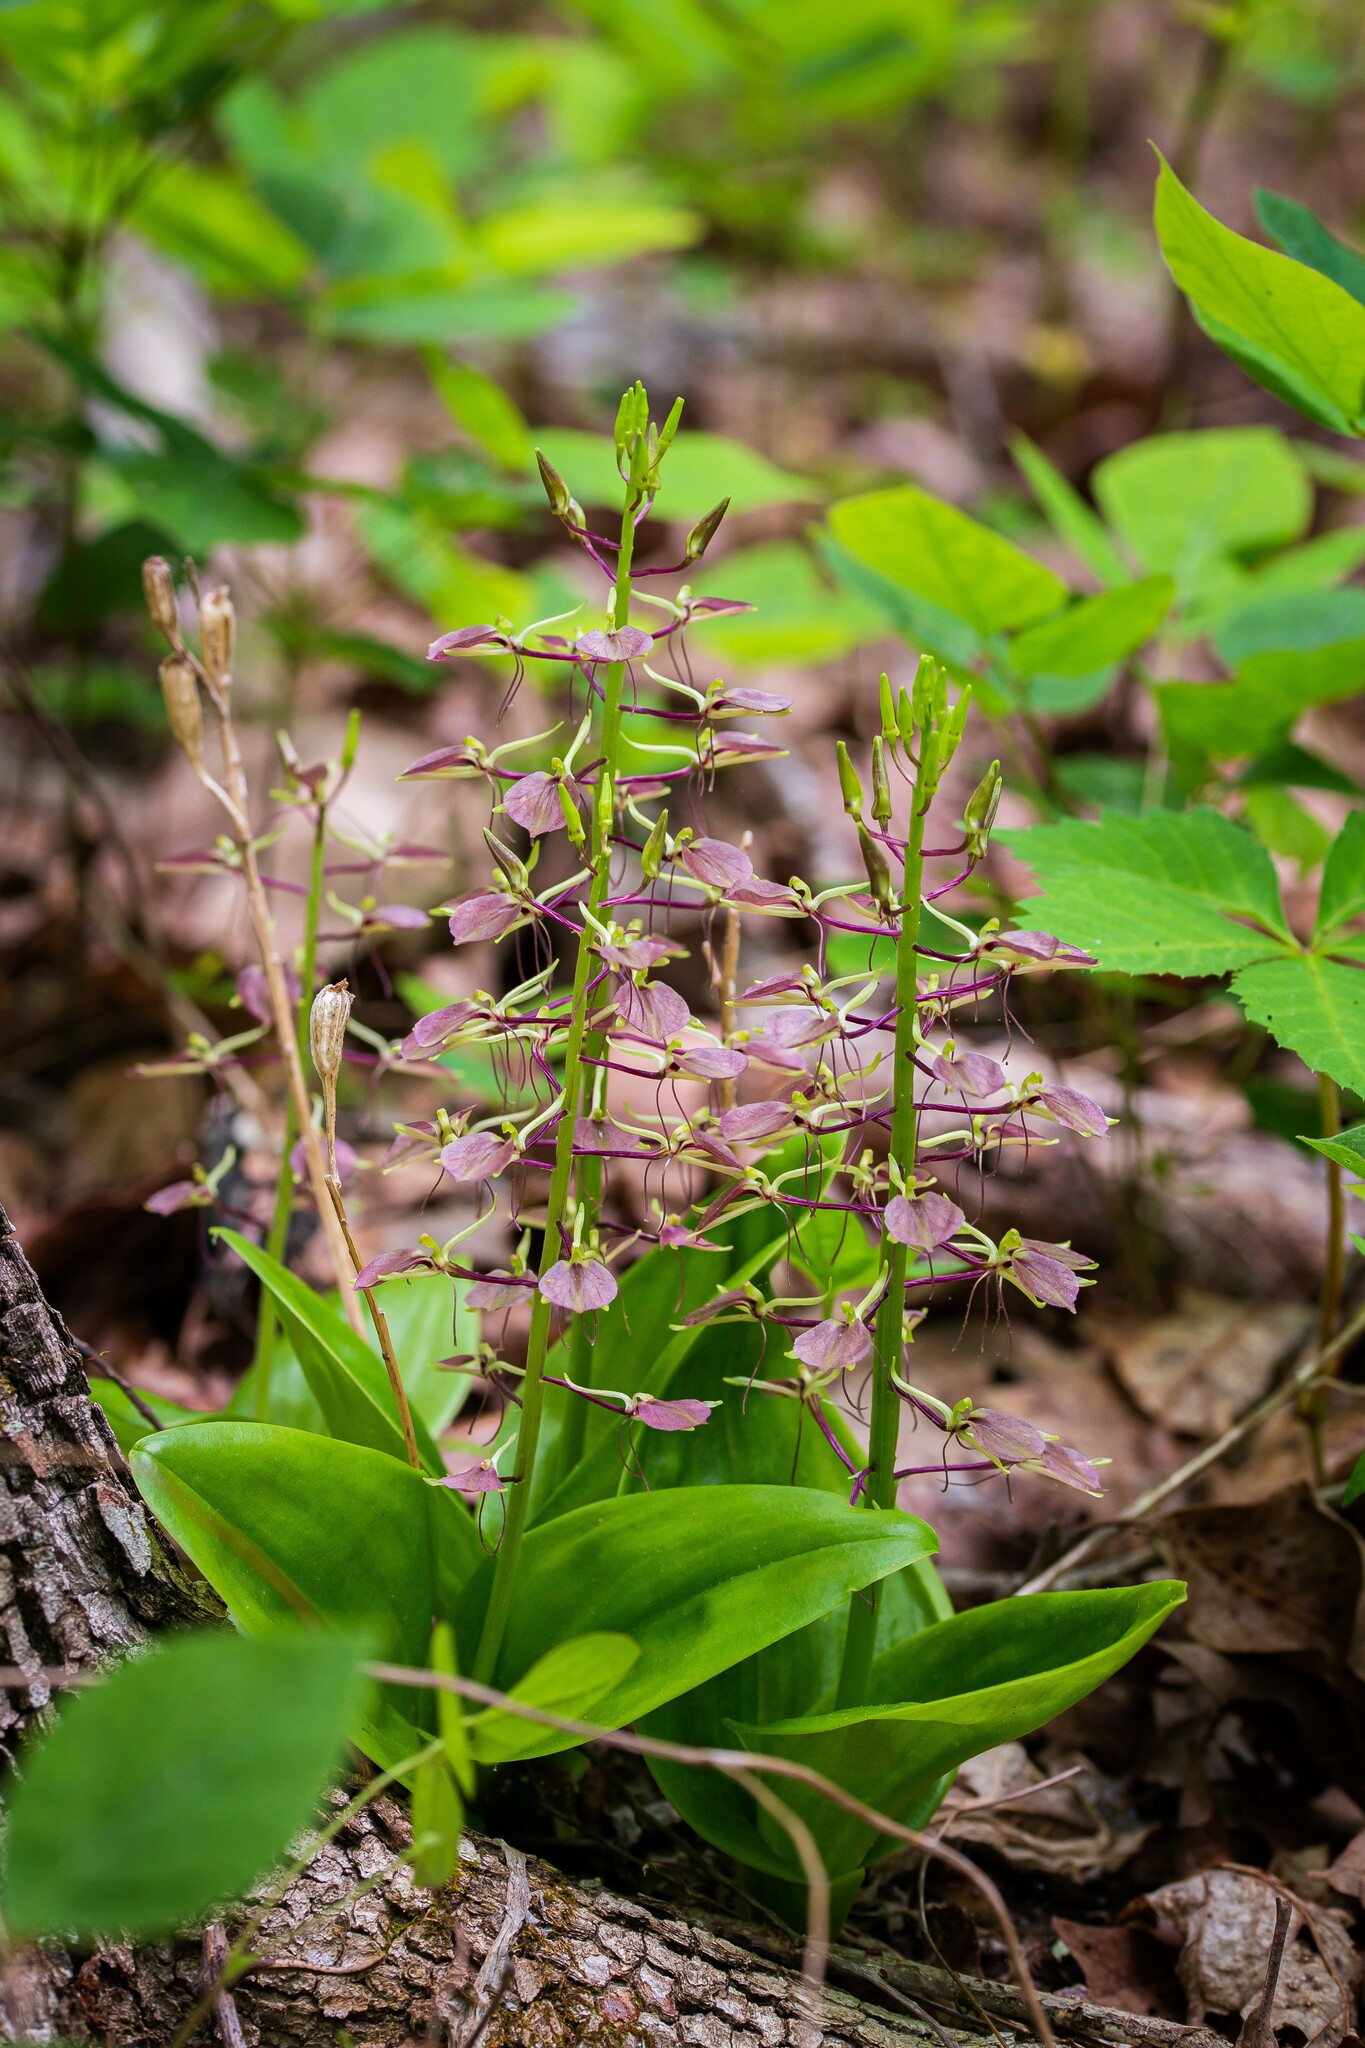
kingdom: Plantae
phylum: Tracheophyta
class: Liliopsida
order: Asparagales
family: Orchidaceae
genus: Liparis
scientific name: Liparis liliifolia
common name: Brown wide-lip orchid
